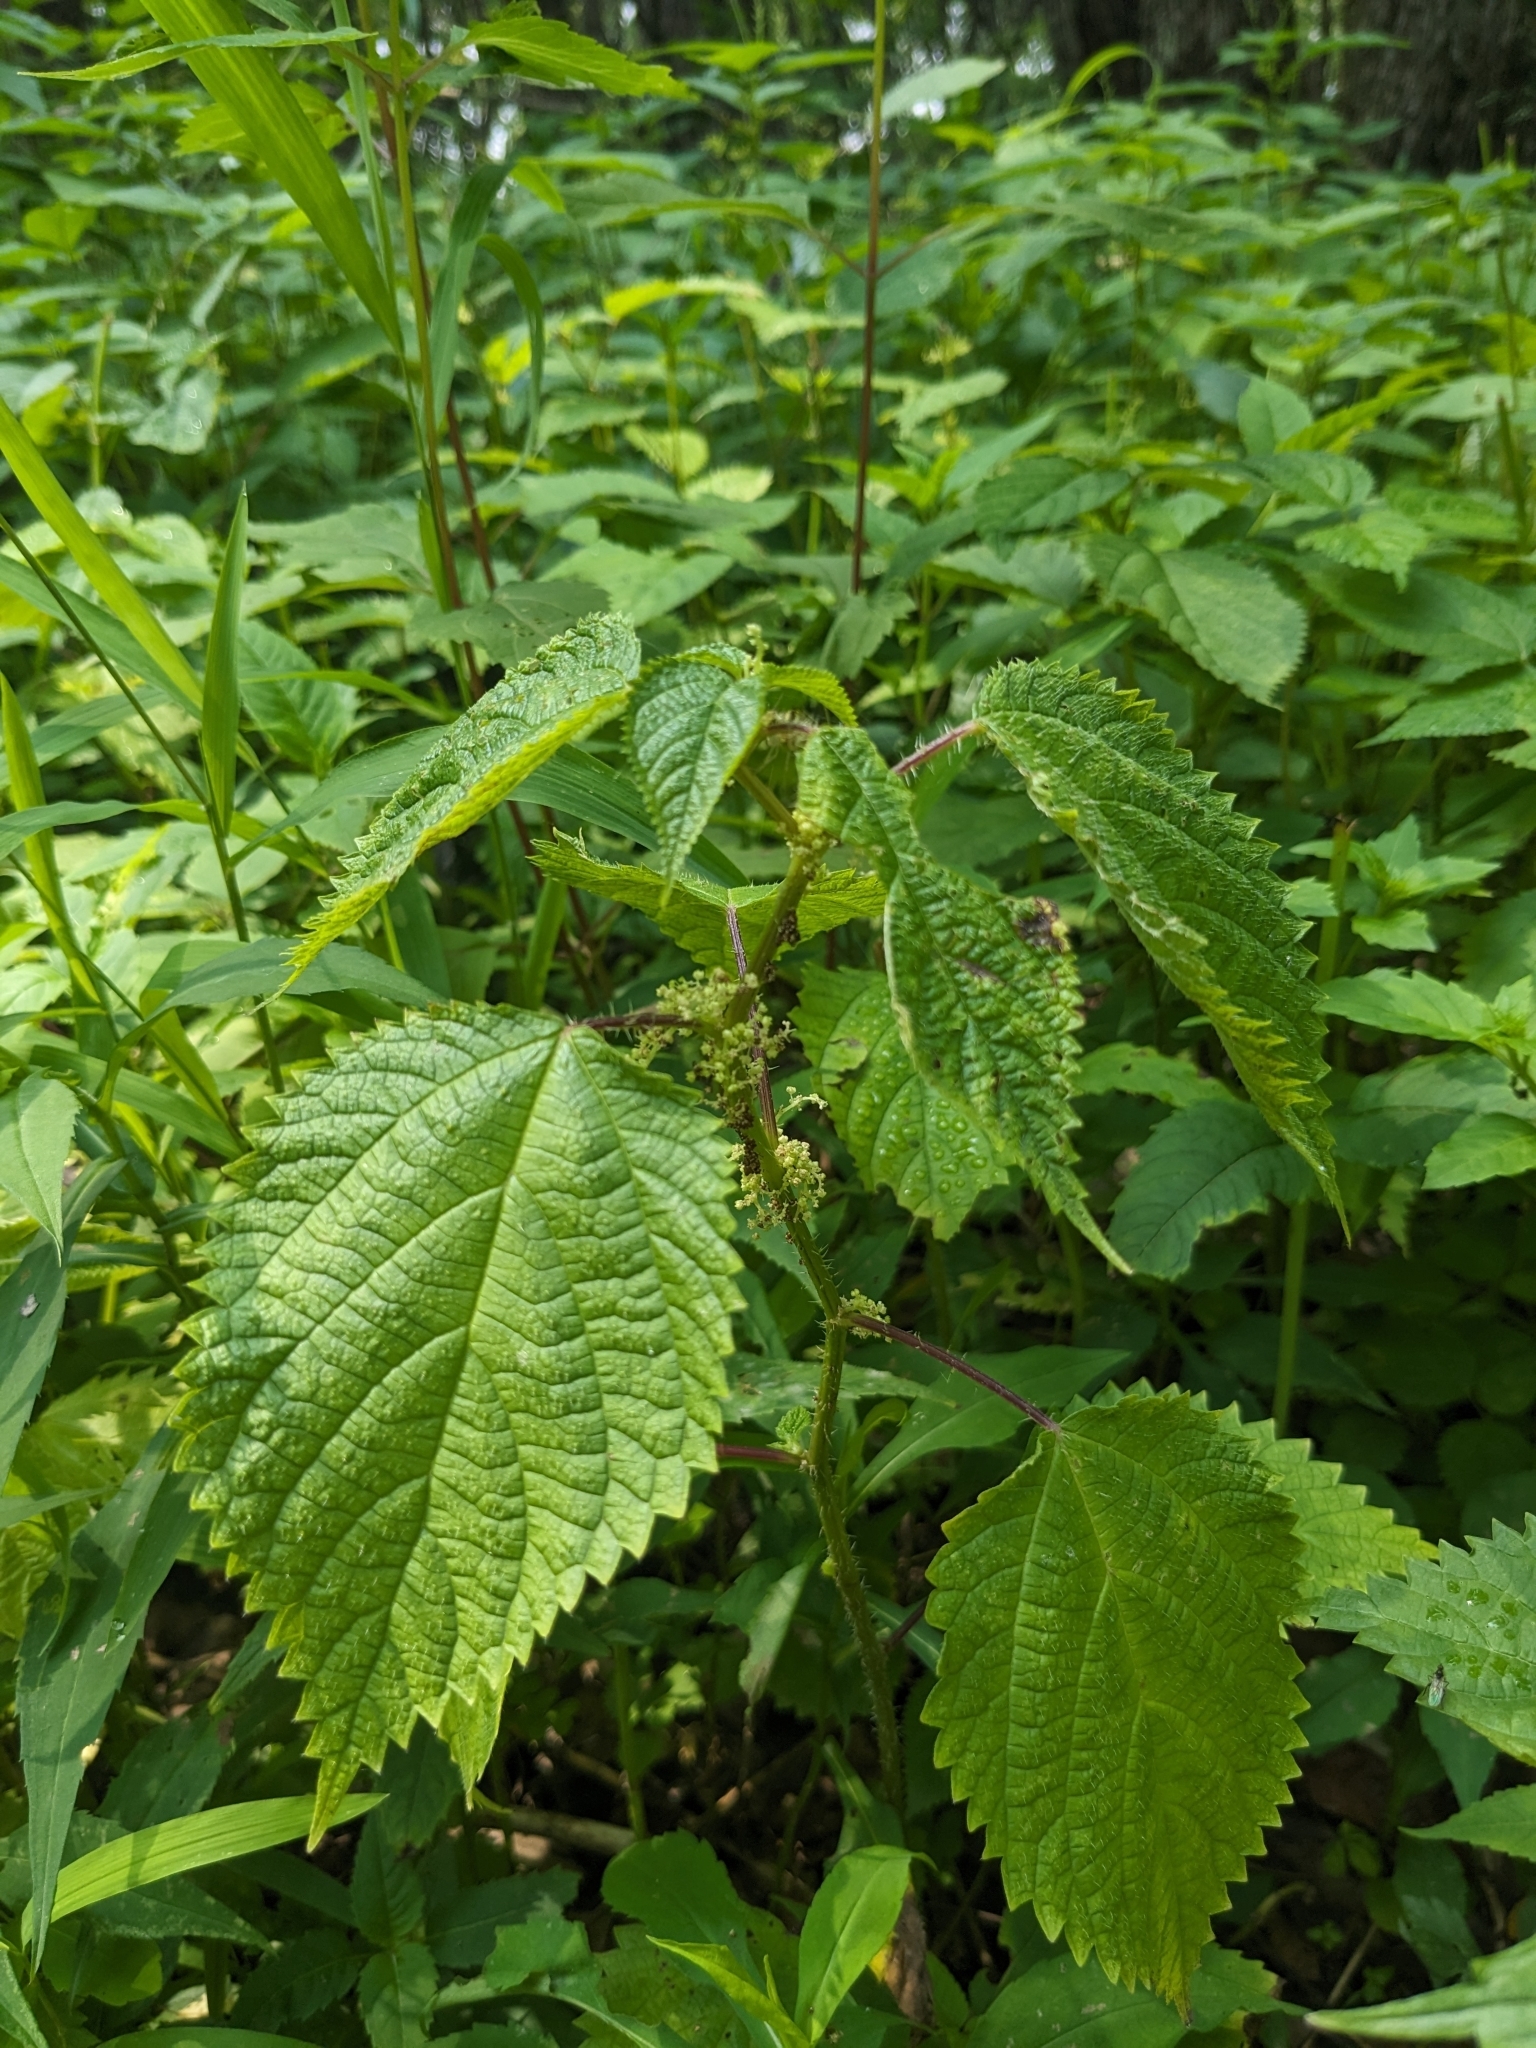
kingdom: Plantae
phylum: Tracheophyta
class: Magnoliopsida
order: Rosales
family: Urticaceae
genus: Laportea
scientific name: Laportea canadensis
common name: Canada nettle
